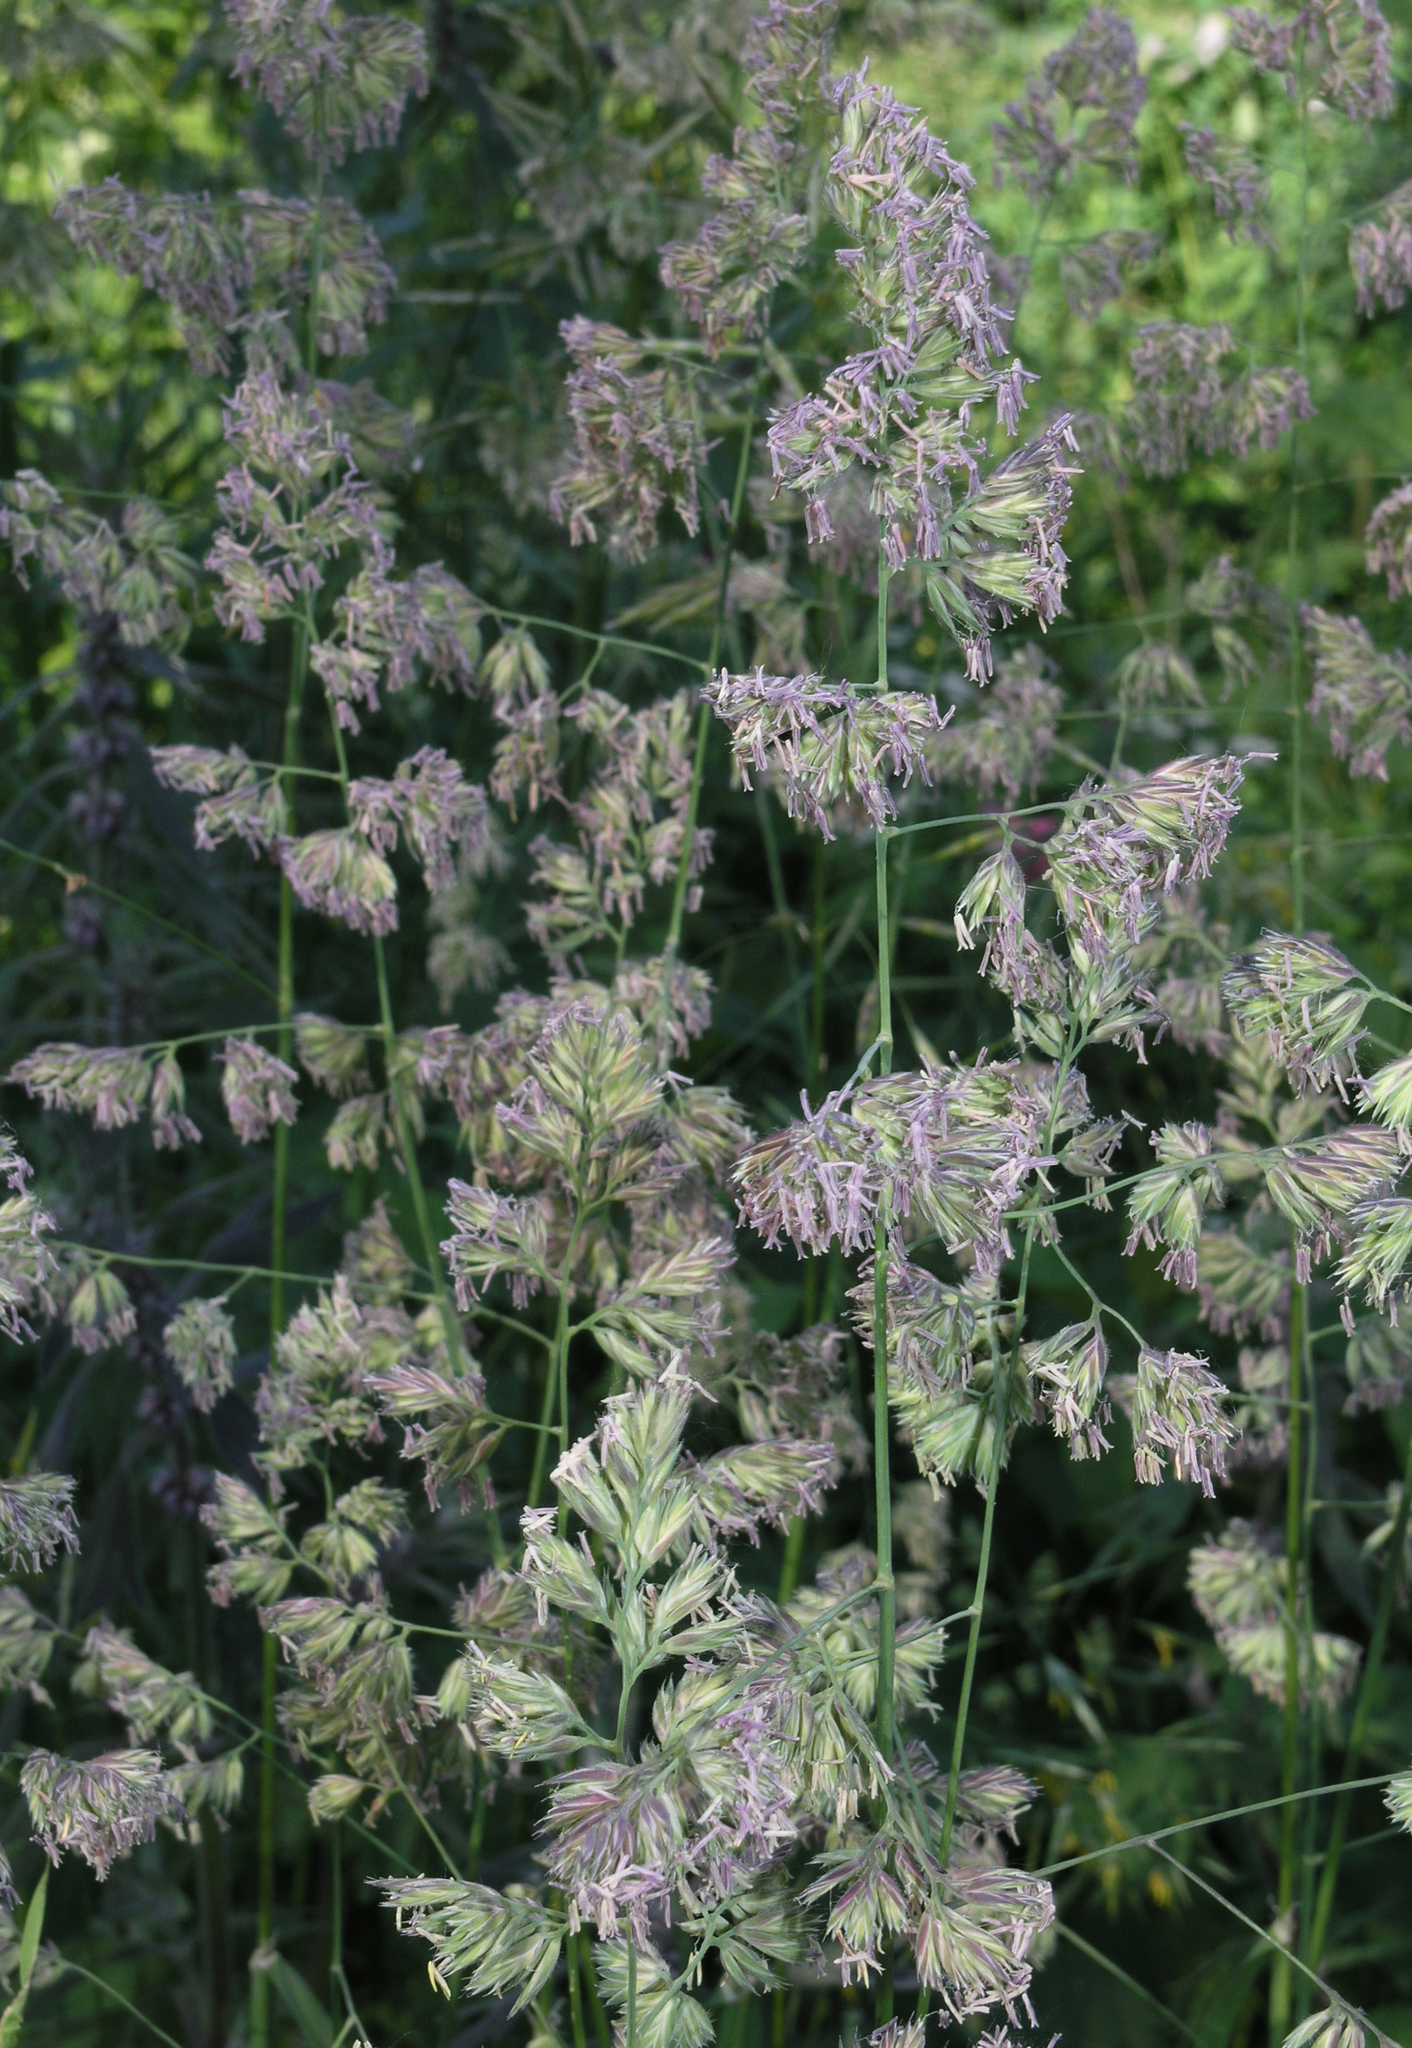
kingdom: Plantae
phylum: Tracheophyta
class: Liliopsida
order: Poales
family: Poaceae
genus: Dactylis
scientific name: Dactylis glomerata
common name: Orchardgrass
